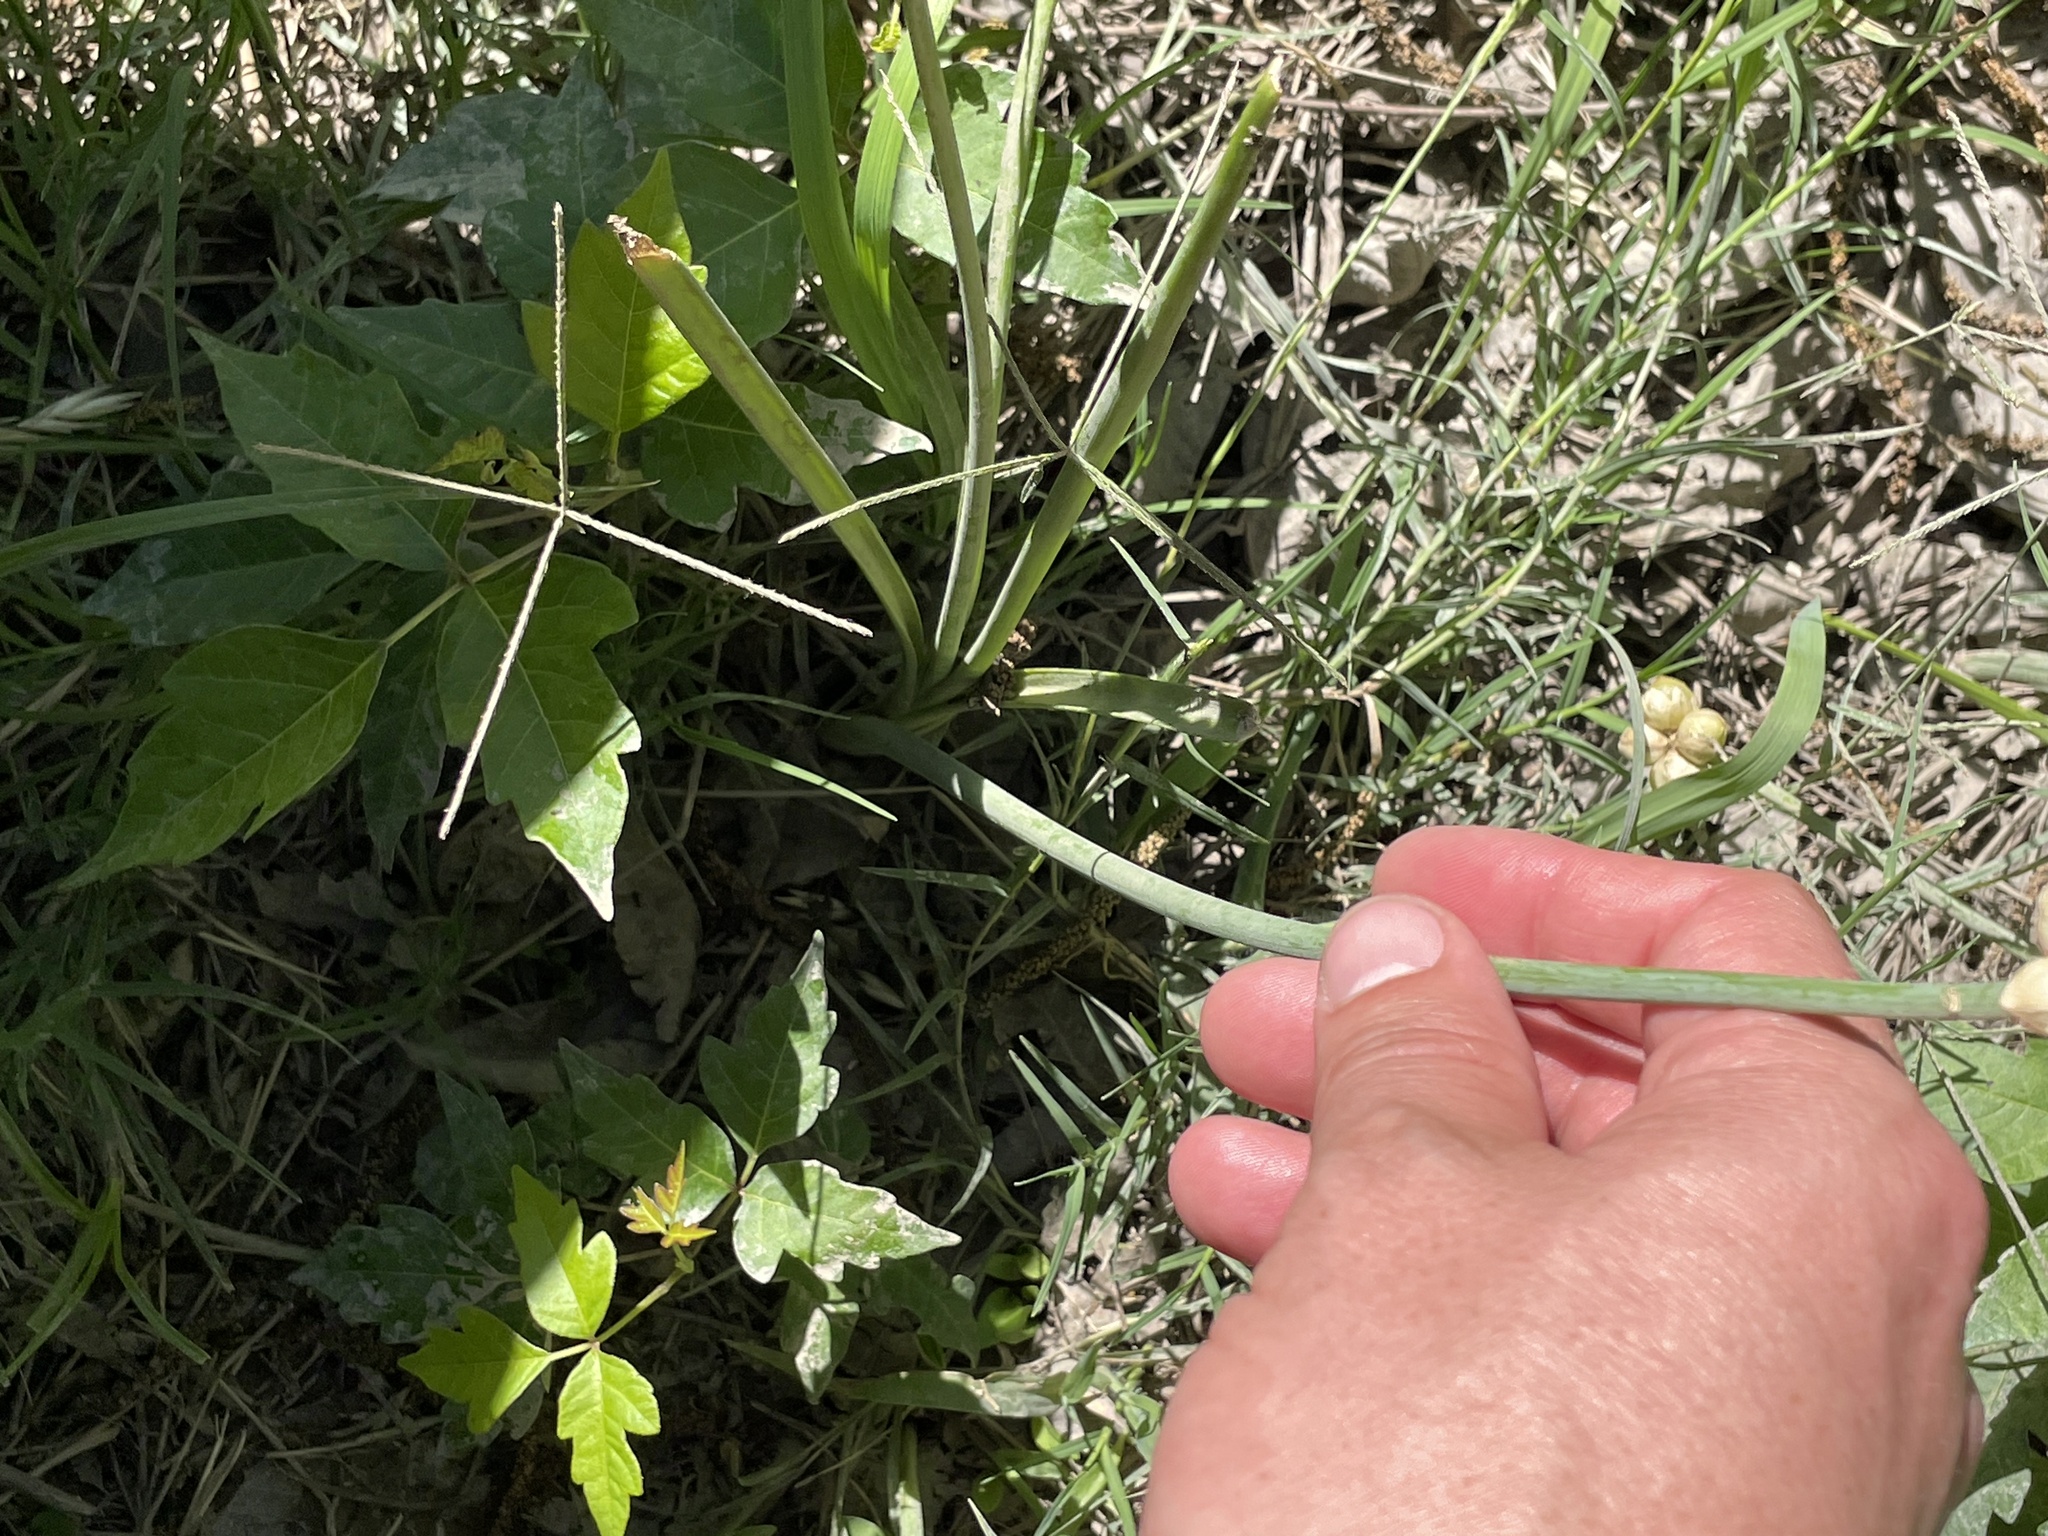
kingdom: Plantae
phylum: Tracheophyta
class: Liliopsida
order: Asparagales
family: Amaryllidaceae
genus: Allium
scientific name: Allium canadense
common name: Meadow garlic
